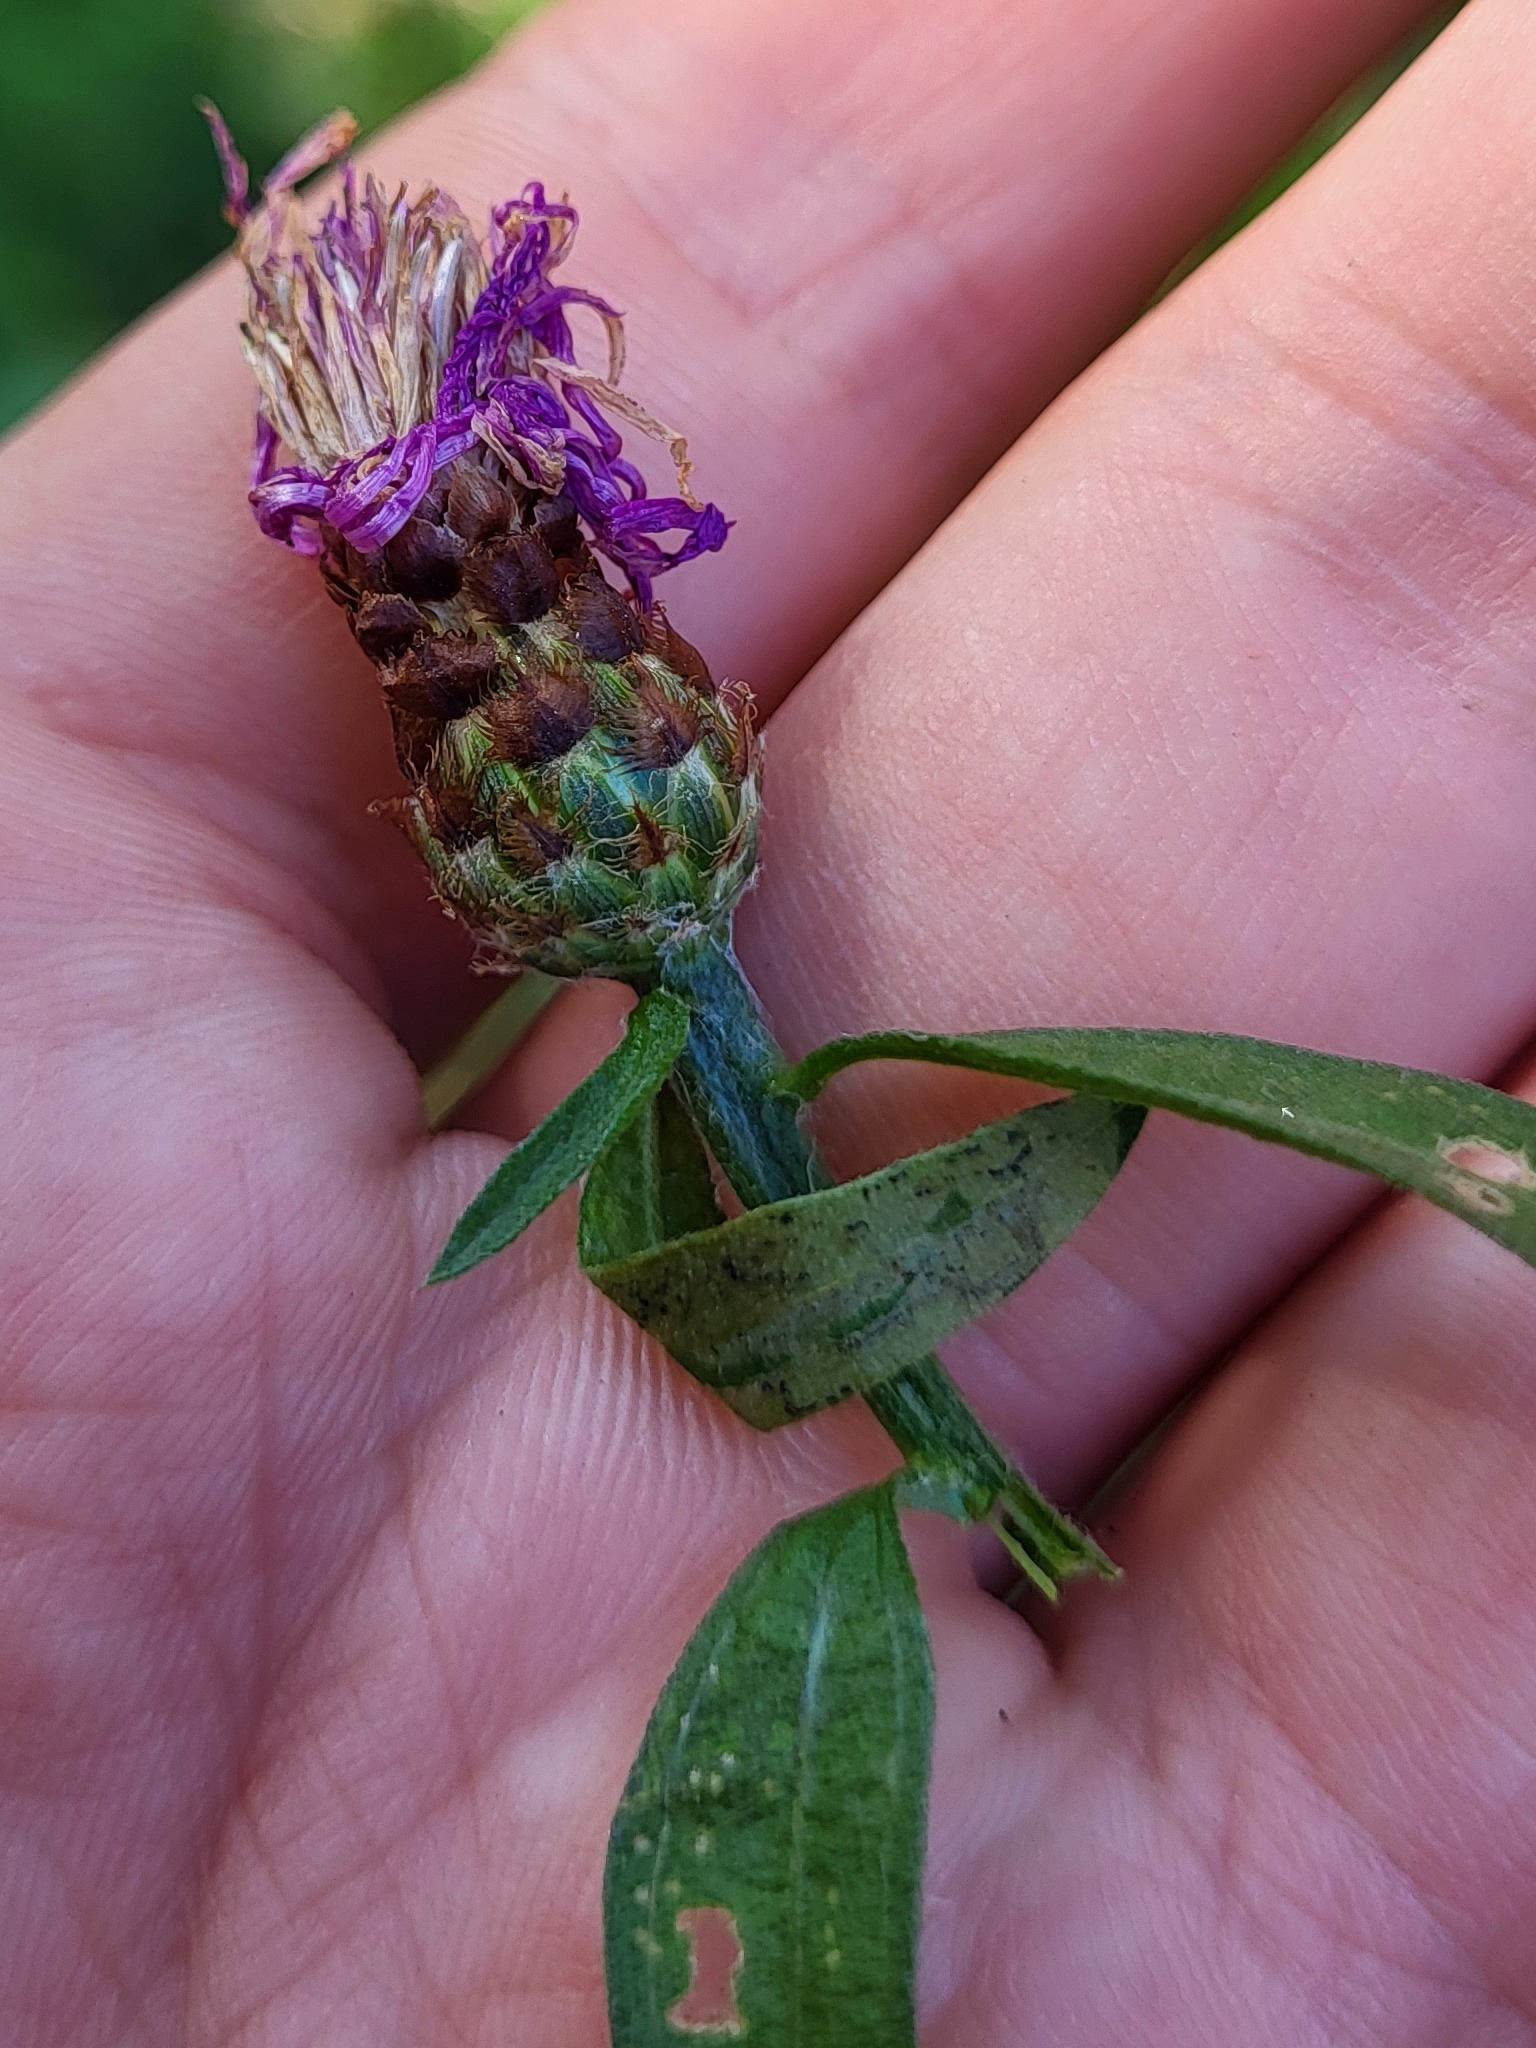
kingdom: Plantae
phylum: Tracheophyta
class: Magnoliopsida
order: Asterales
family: Asteraceae
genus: Centaurea
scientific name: Centaurea nigrescens
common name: Tyrol knapweed
